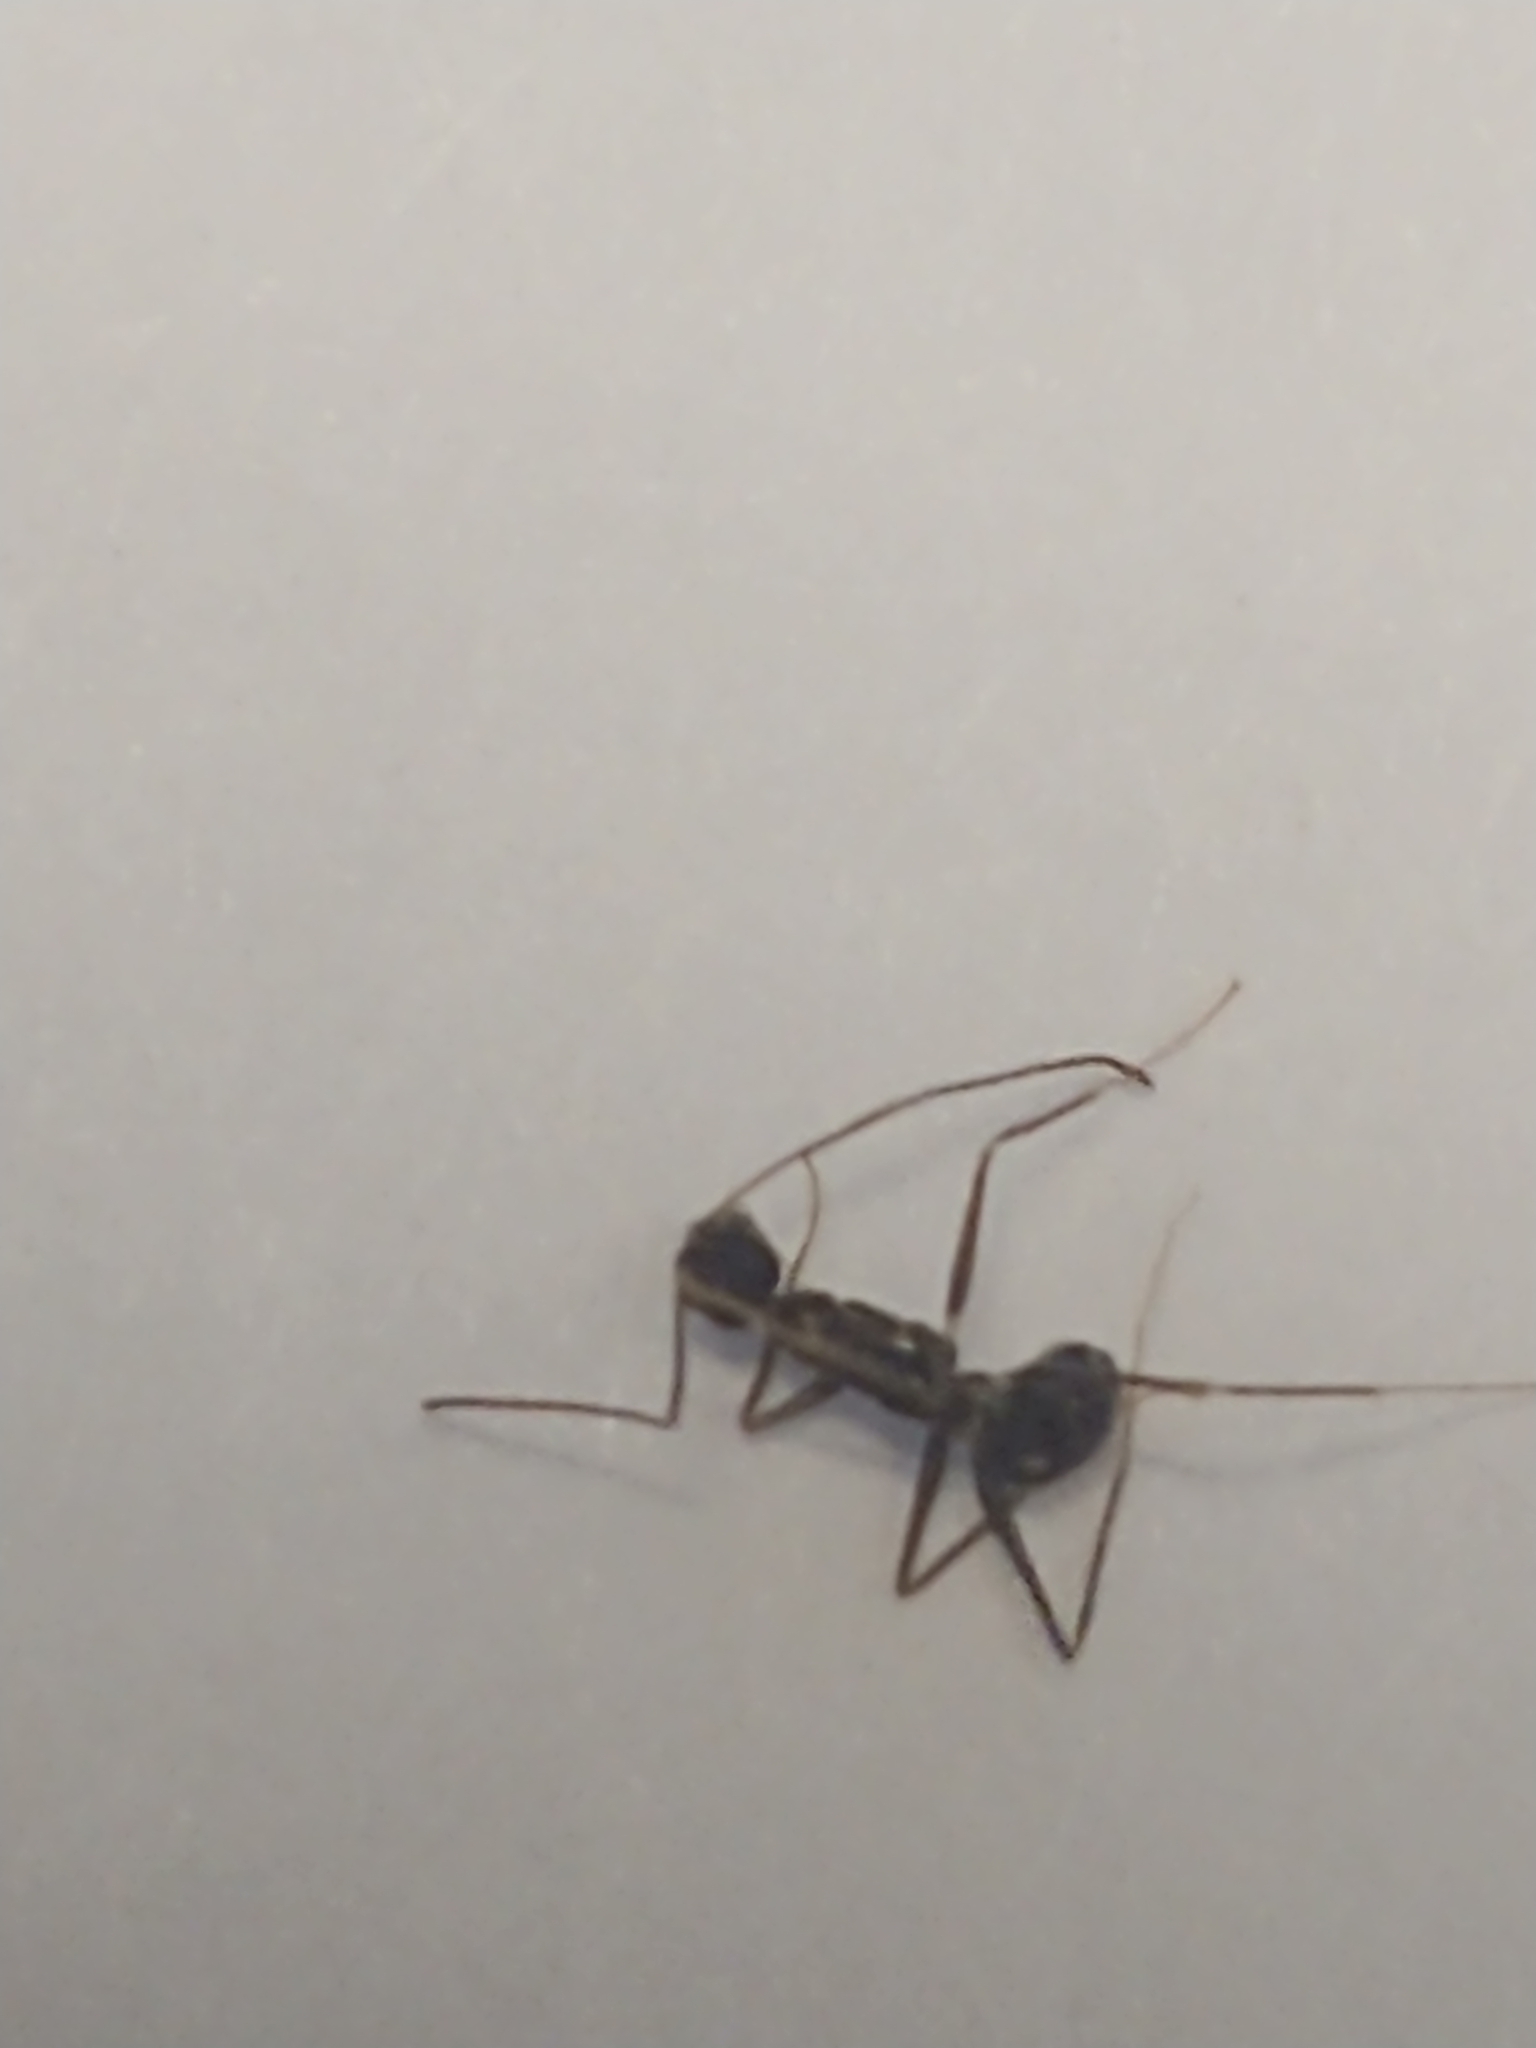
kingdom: Animalia
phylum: Arthropoda
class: Insecta
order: Hymenoptera
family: Formicidae
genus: Paratrechina
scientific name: Paratrechina longicornis
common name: Longhorned crazy ant
